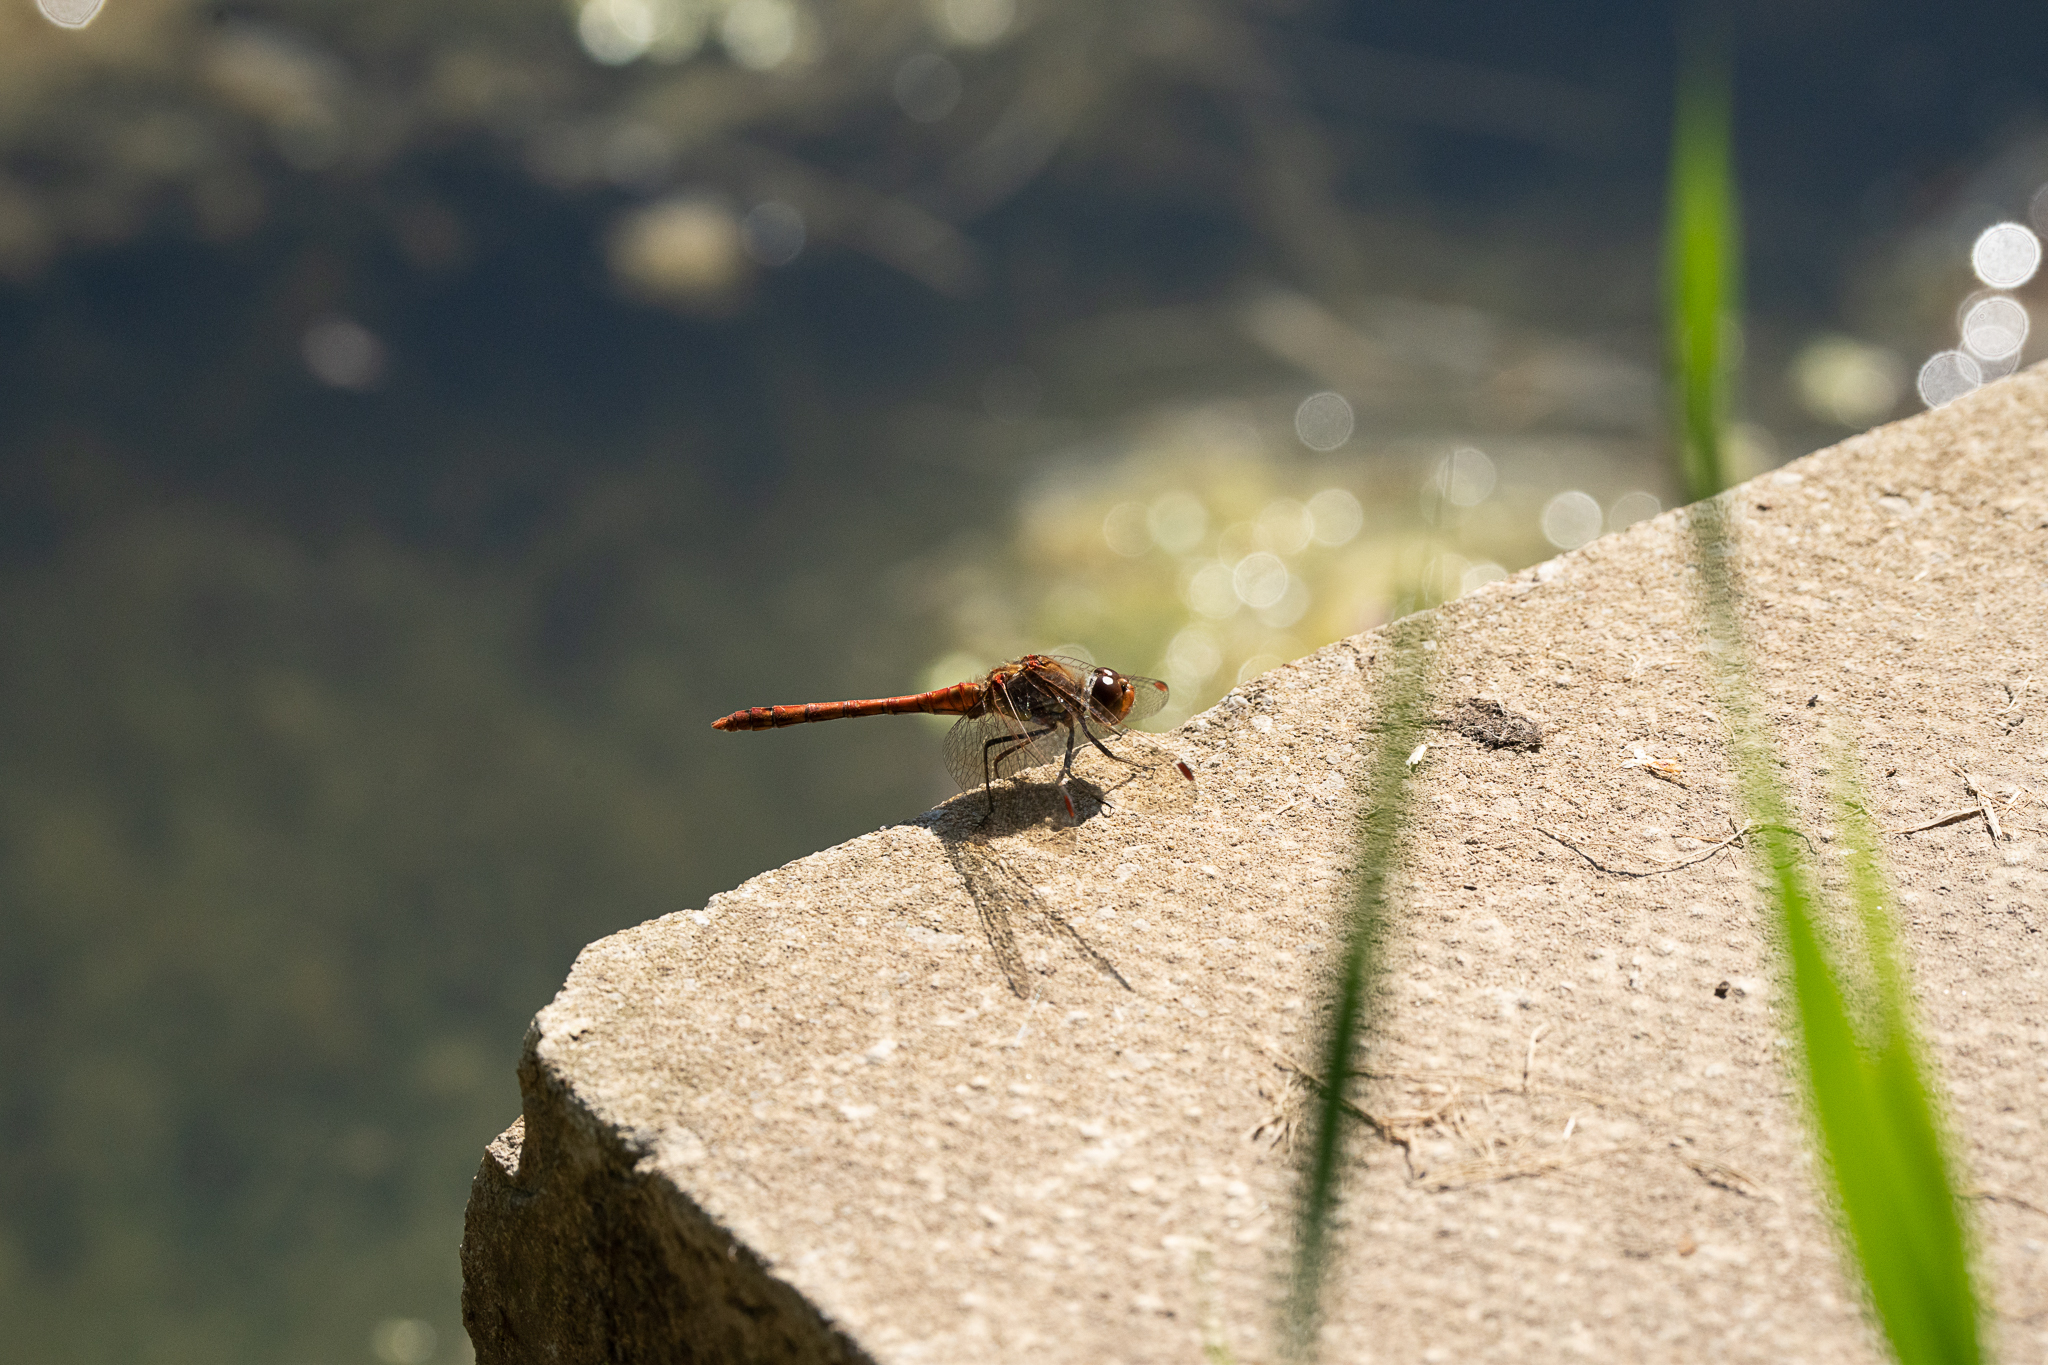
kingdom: Animalia
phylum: Arthropoda
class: Insecta
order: Odonata
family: Libellulidae
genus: Sympetrum
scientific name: Sympetrum striolatum
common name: Common darter
